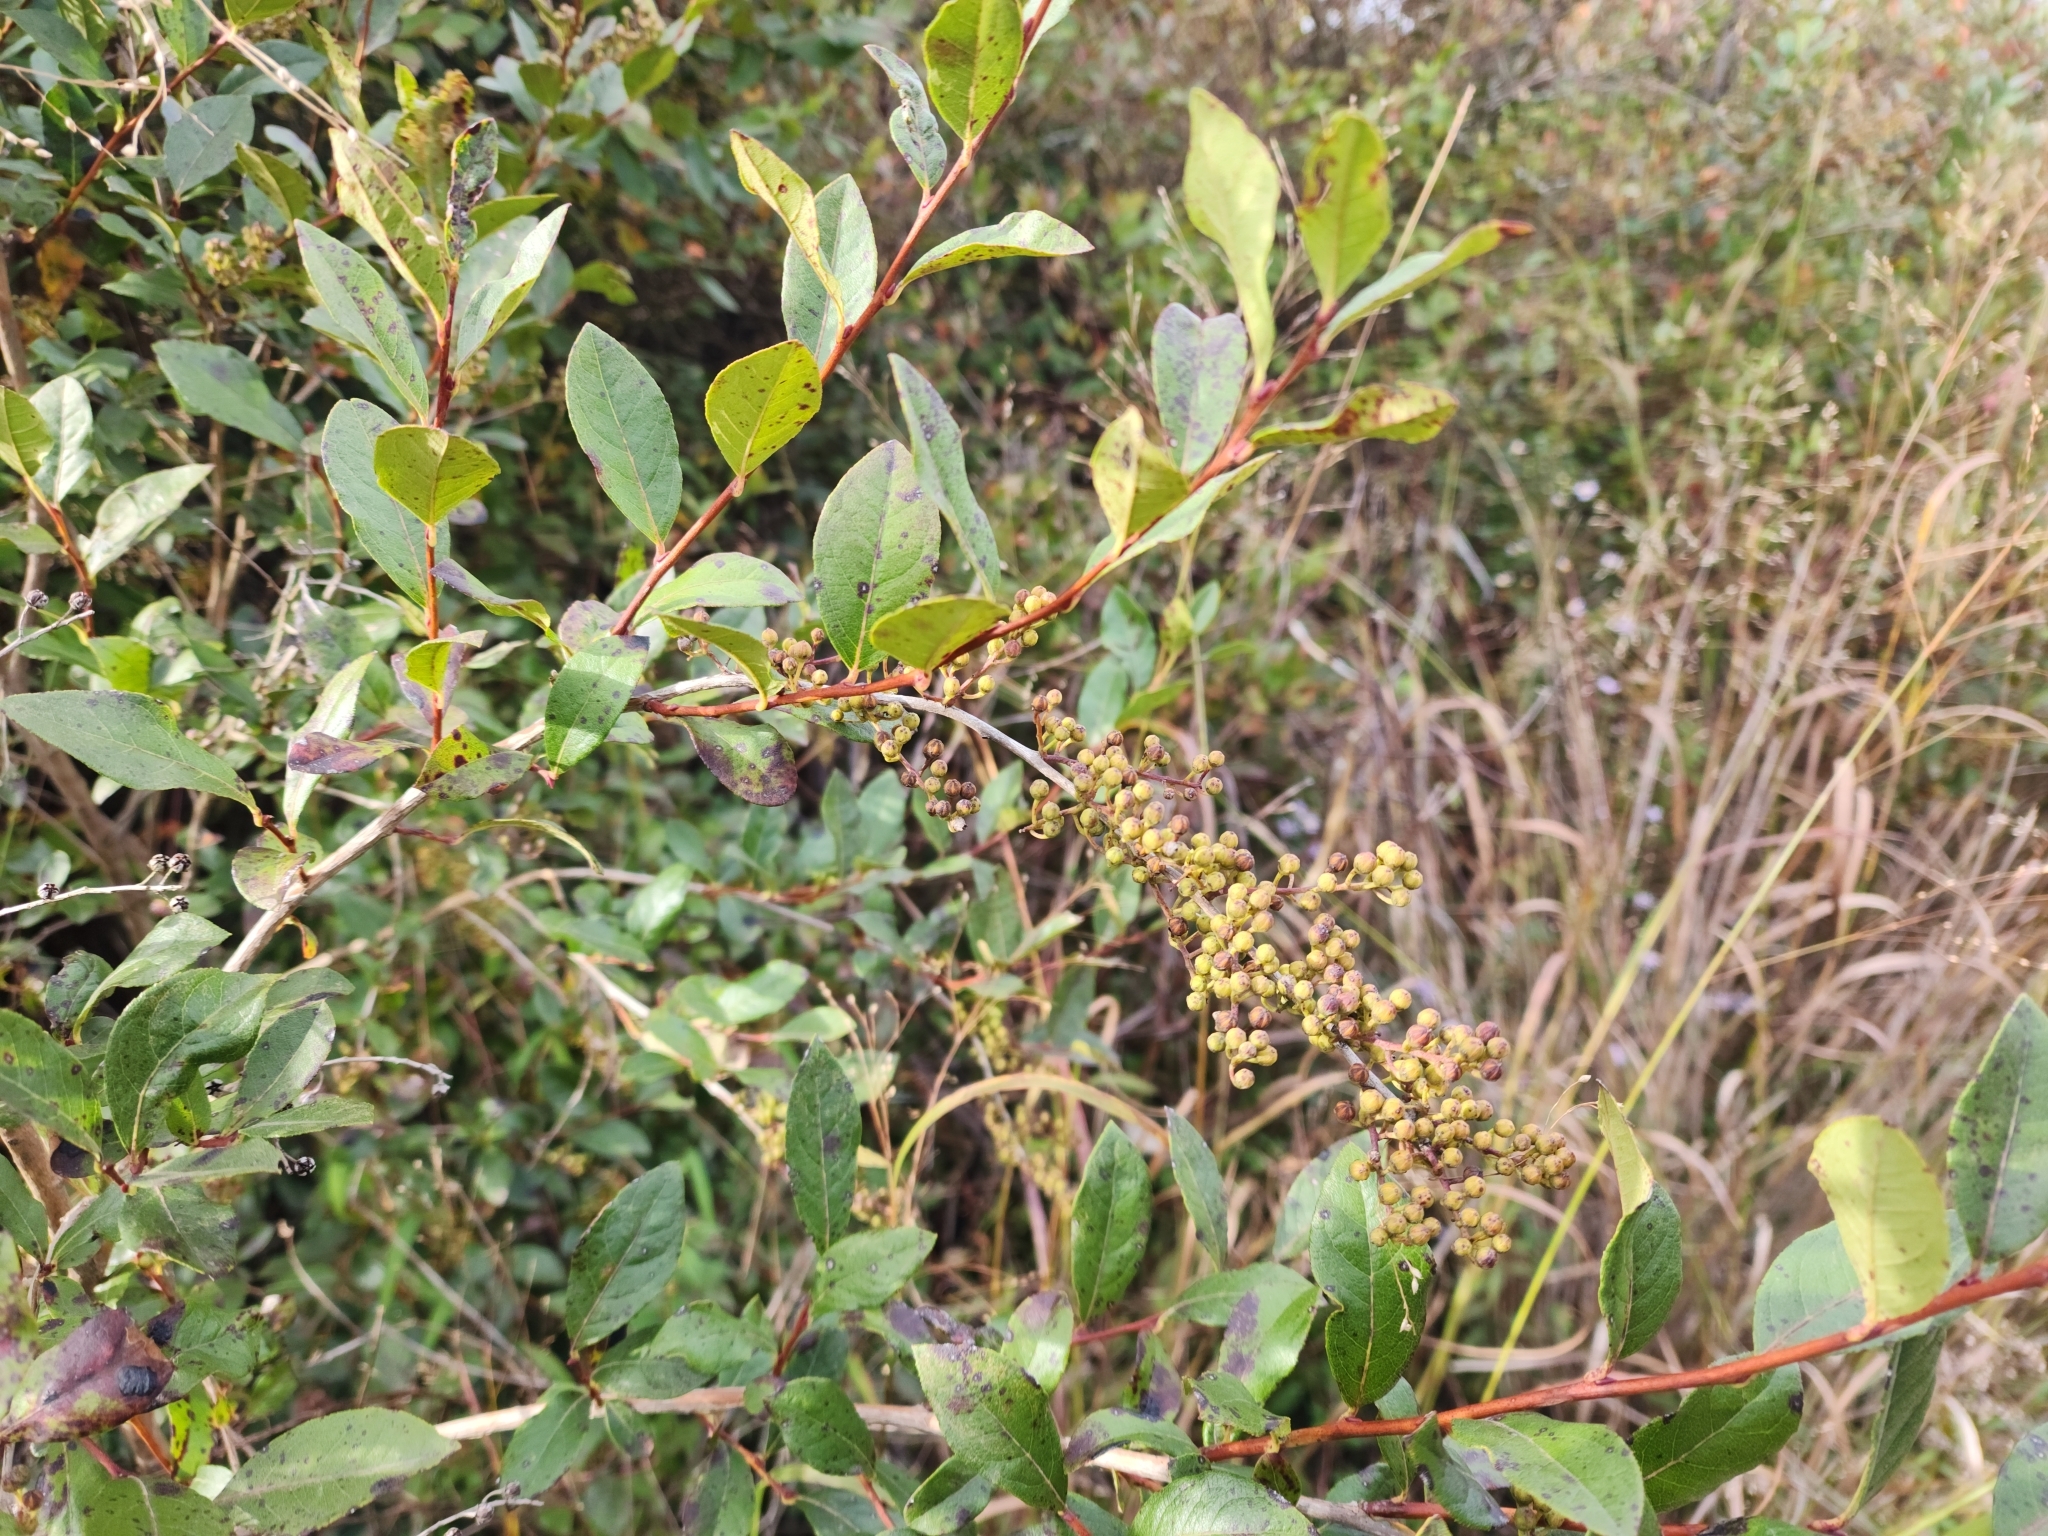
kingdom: Plantae
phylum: Tracheophyta
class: Magnoliopsida
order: Ericales
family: Ericaceae
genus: Lyonia
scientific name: Lyonia ligustrina
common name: Maleberry
